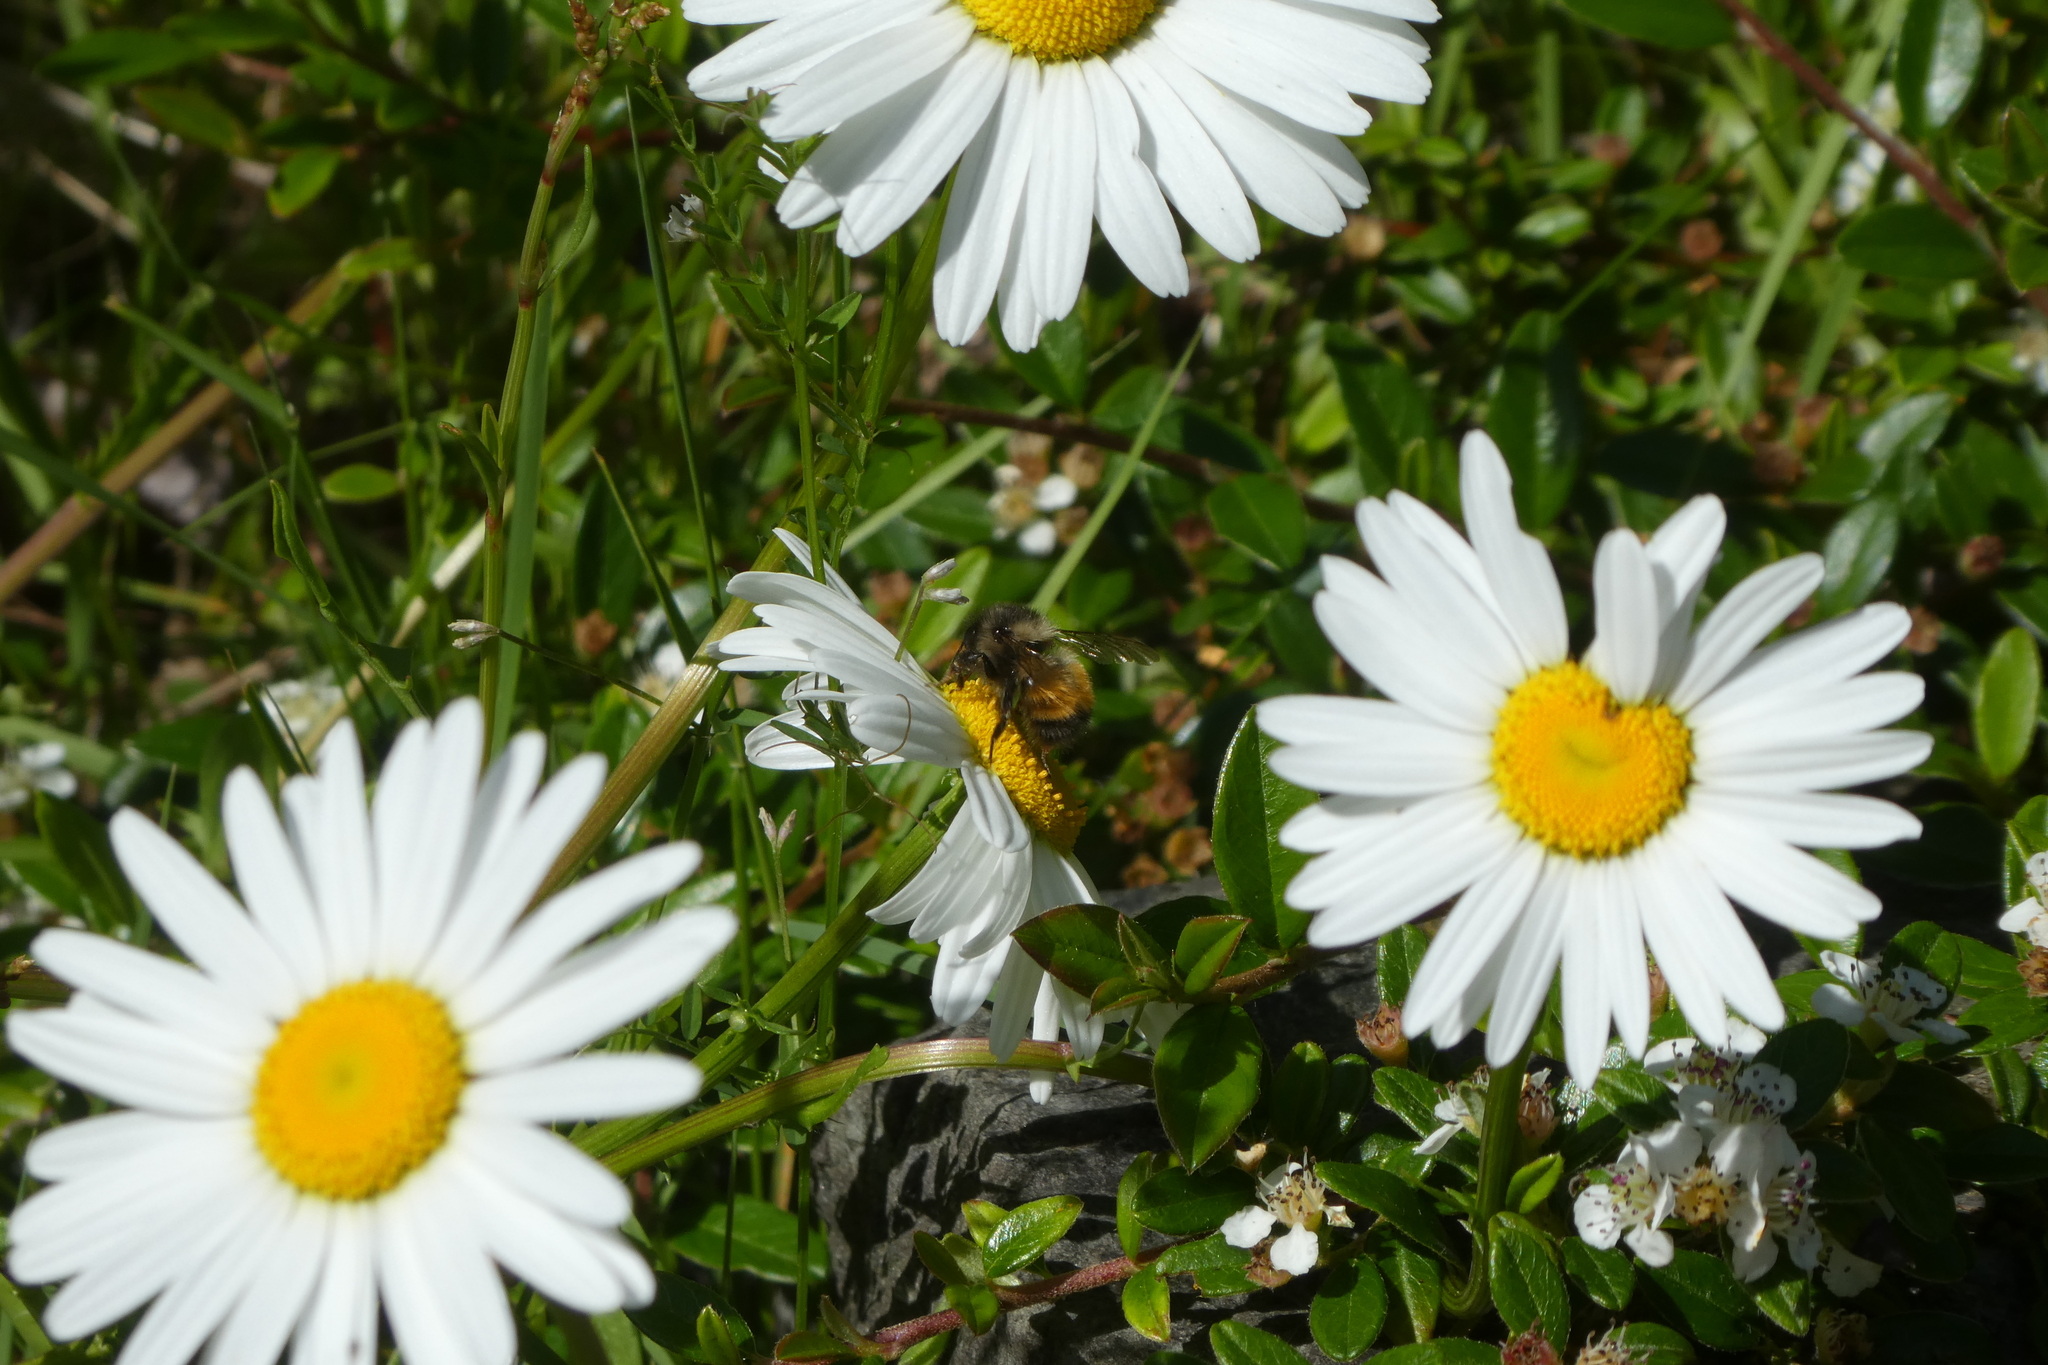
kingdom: Animalia
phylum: Arthropoda
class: Insecta
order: Hymenoptera
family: Apidae
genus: Bombus
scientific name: Bombus melanopygus
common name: Black tail bumble bee
